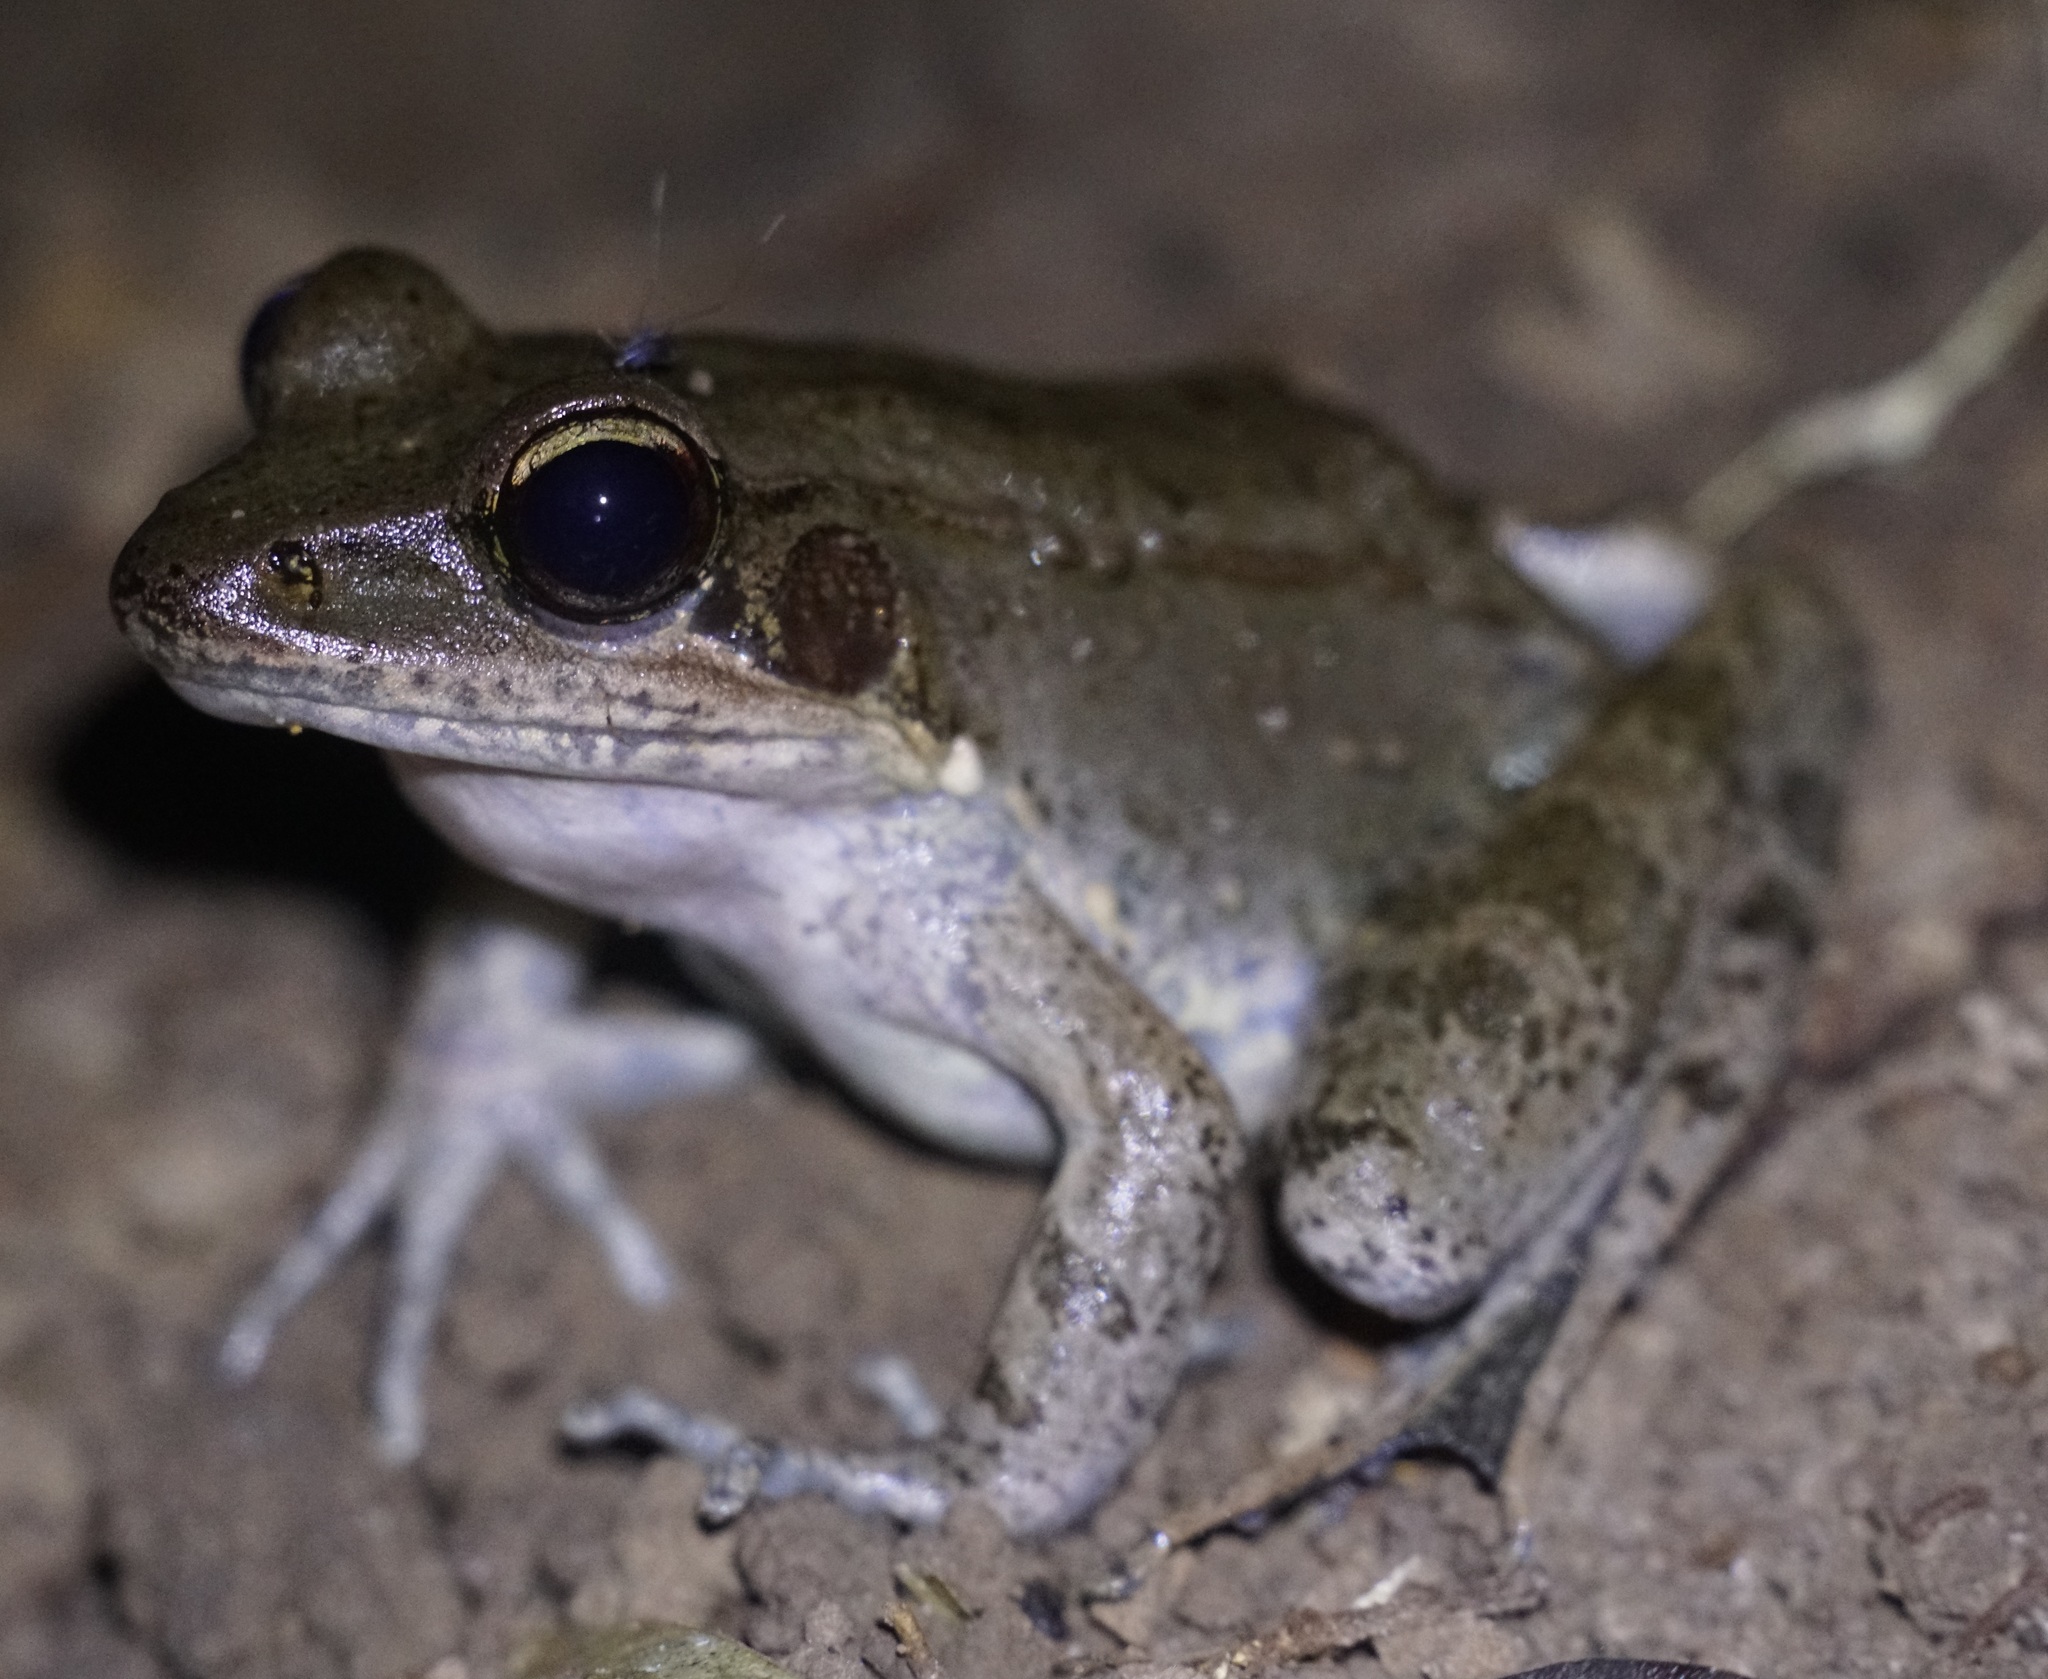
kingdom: Animalia
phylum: Chordata
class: Amphibia
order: Anura
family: Ranidae
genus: Papurana
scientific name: Papurana daemeli
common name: Arhem rana
